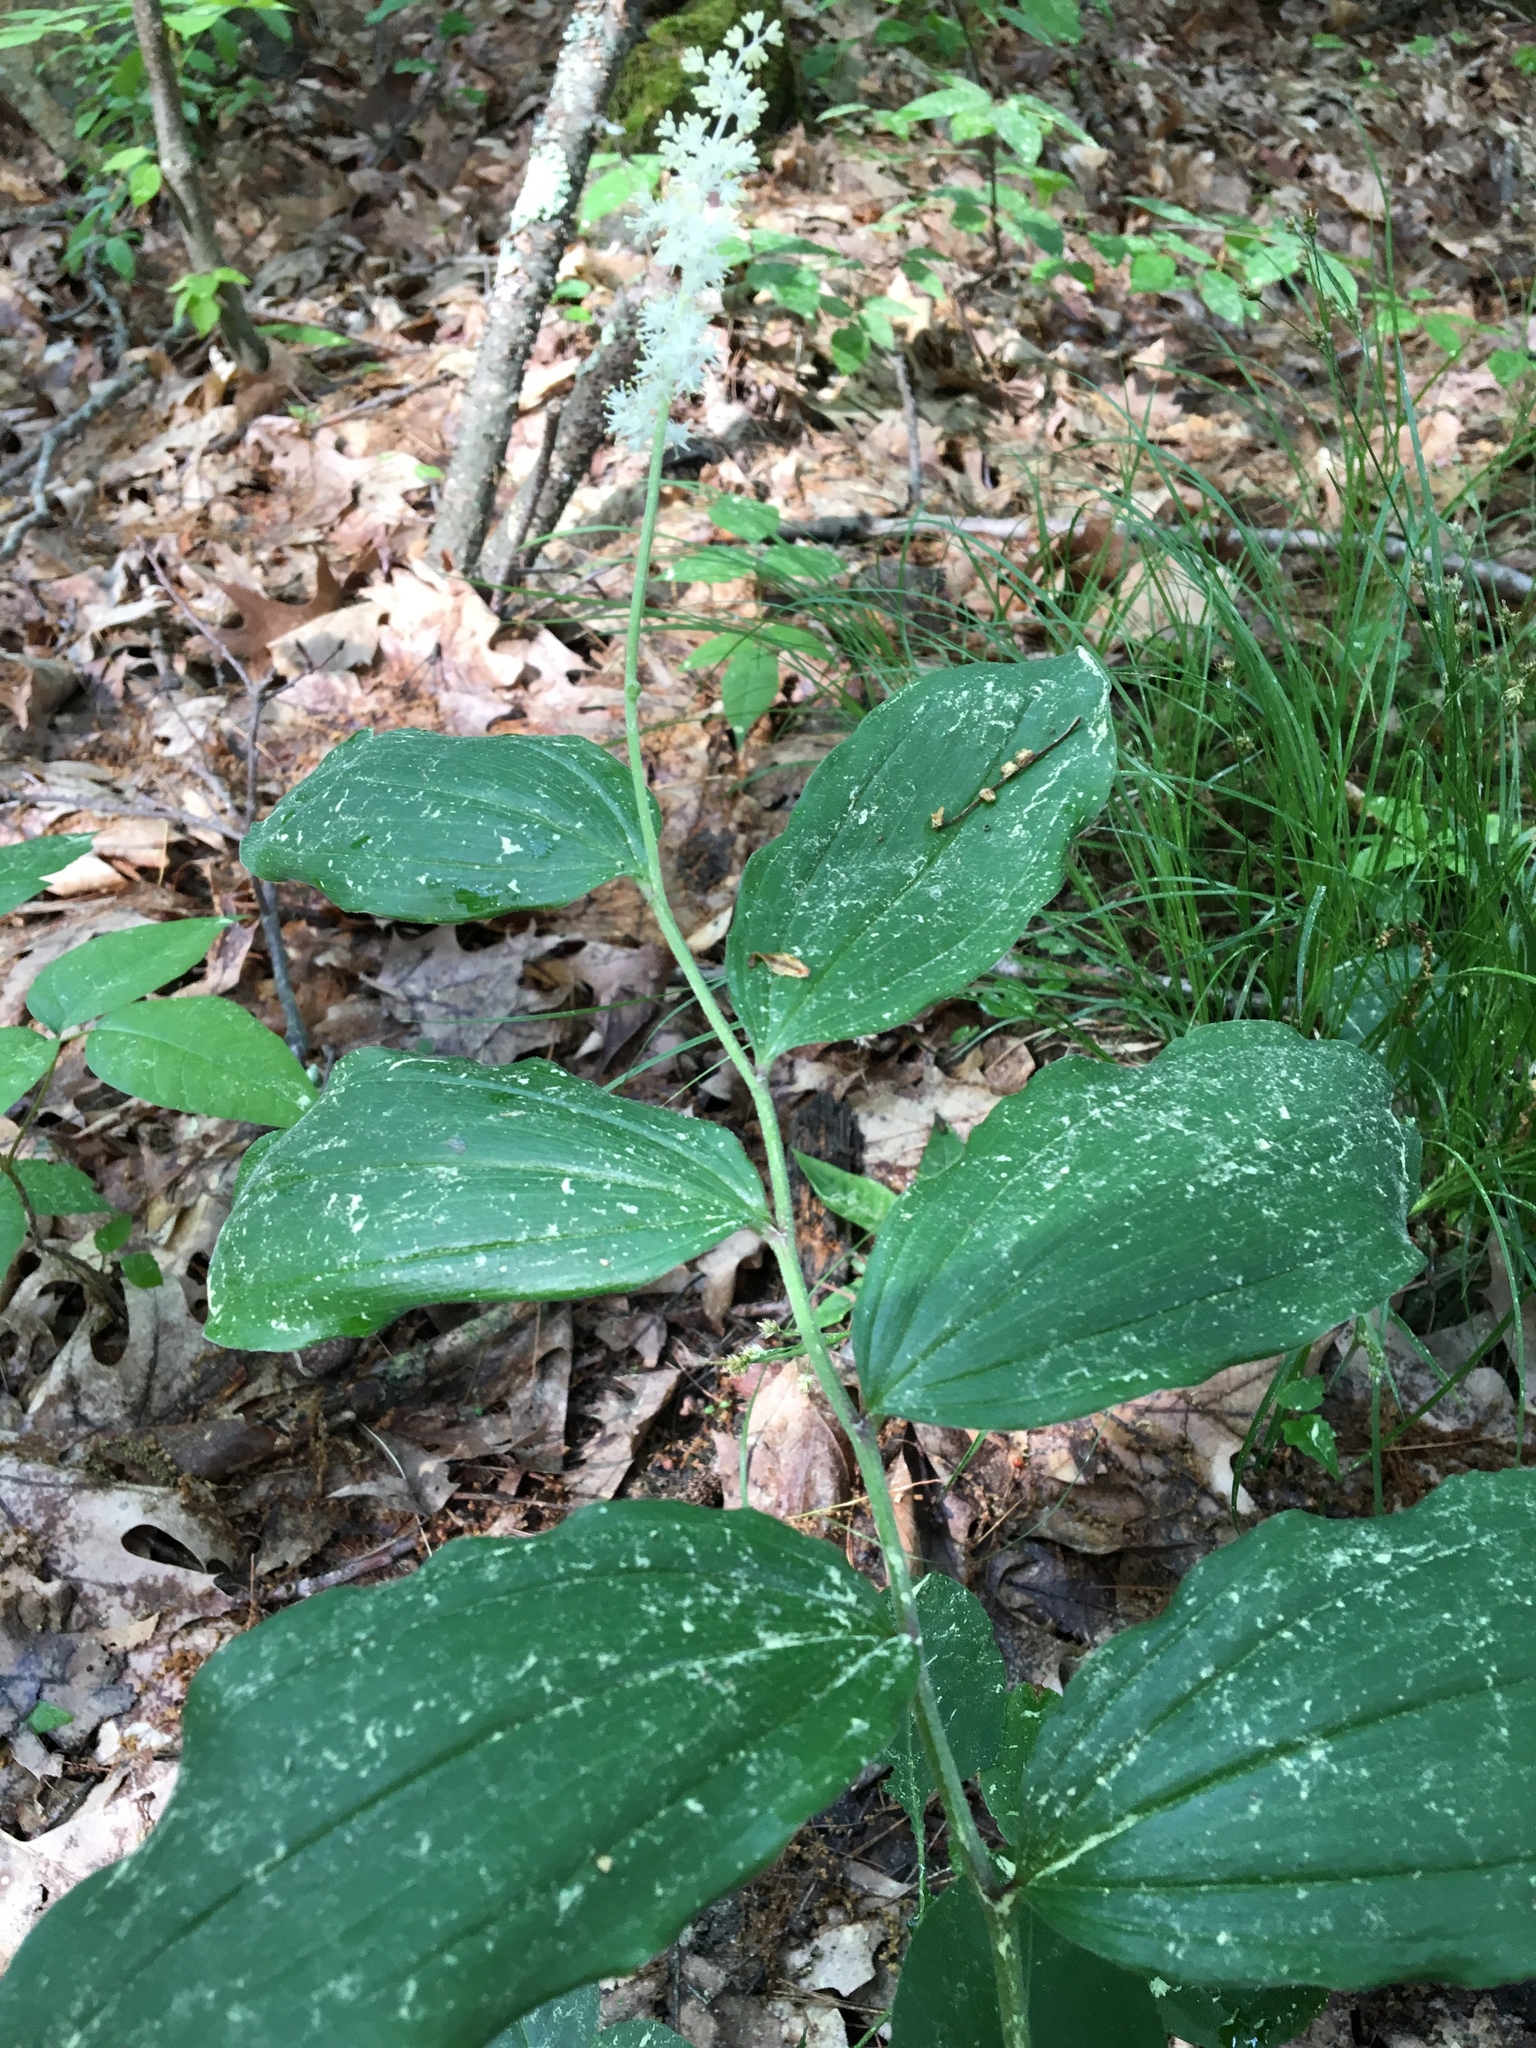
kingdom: Plantae
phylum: Tracheophyta
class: Liliopsida
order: Asparagales
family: Asparagaceae
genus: Maianthemum
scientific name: Maianthemum racemosum
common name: False spikenard
